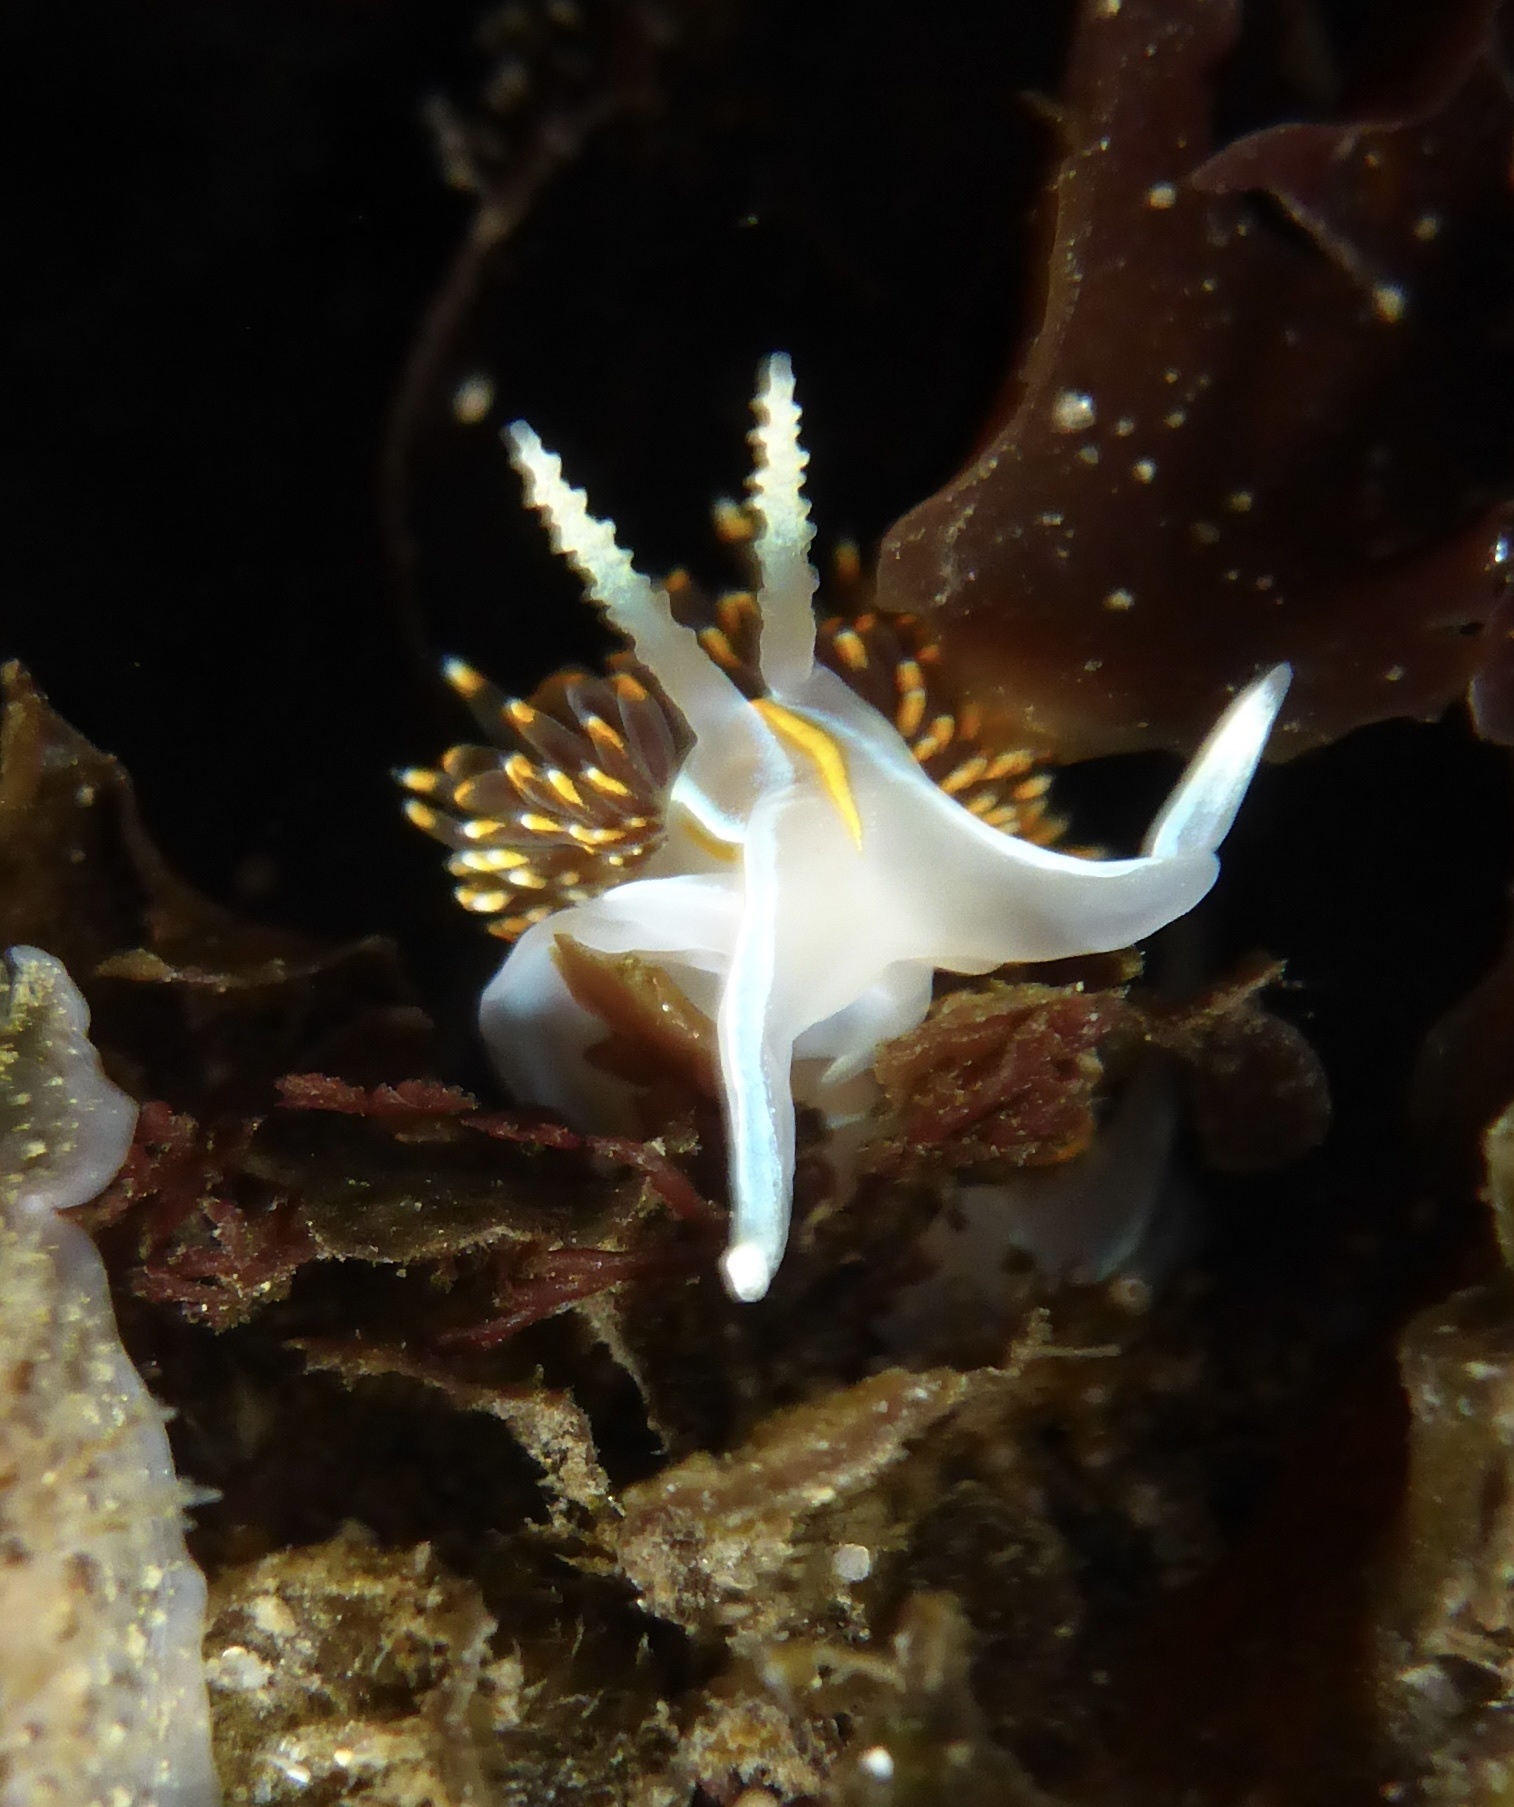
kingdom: Animalia
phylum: Mollusca
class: Gastropoda
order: Nudibranchia
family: Myrrhinidae
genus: Hermissenda
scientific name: Hermissenda opalescens
